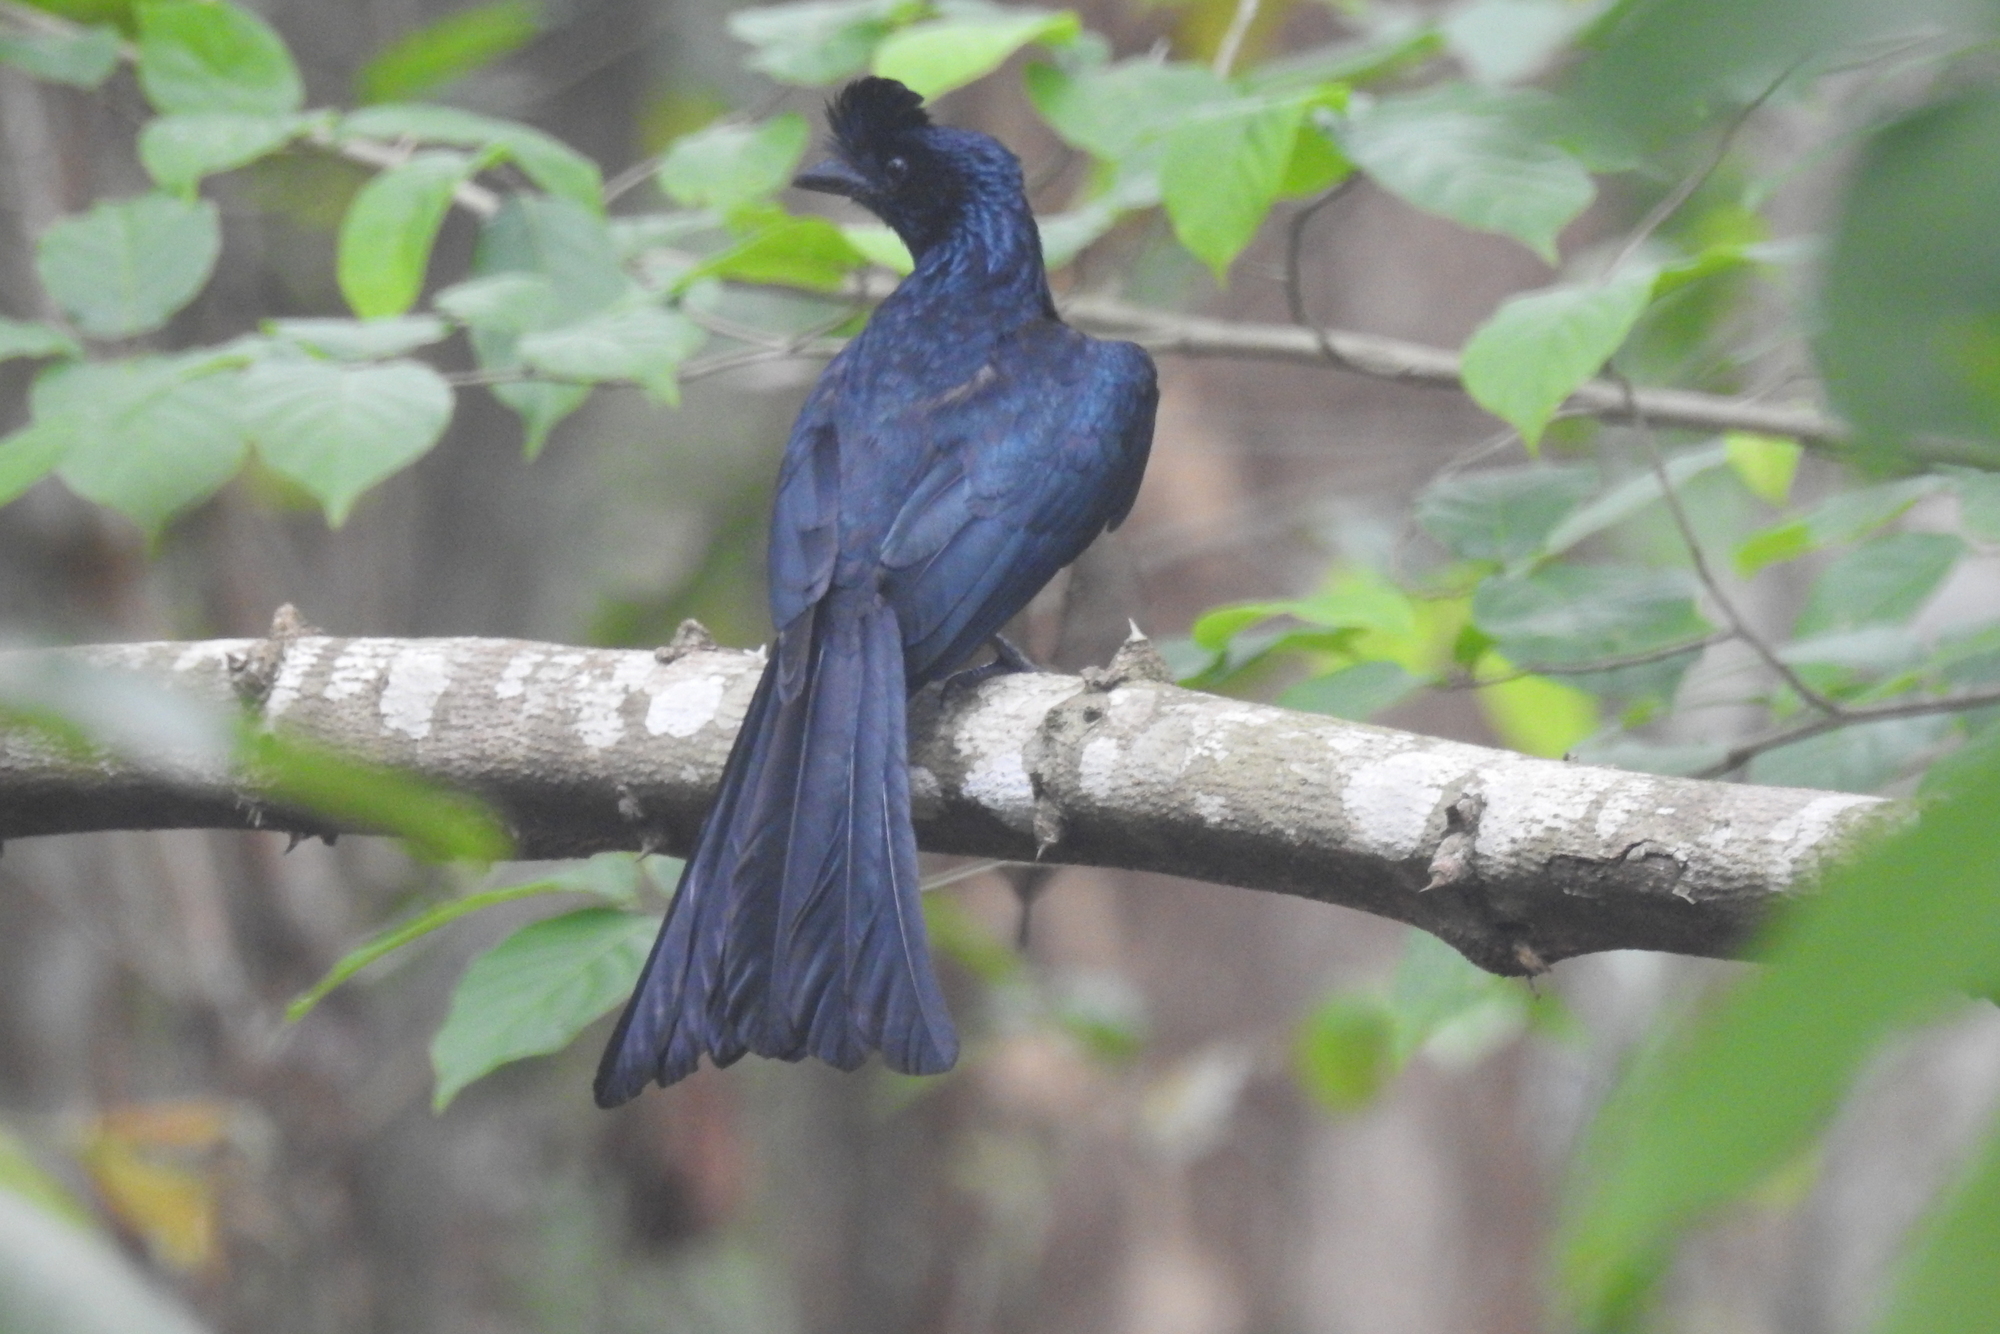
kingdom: Animalia
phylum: Chordata
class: Aves
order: Passeriformes
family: Dicruridae
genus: Dicrurus
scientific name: Dicrurus paradiseus
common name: Greater racket-tailed drongo
